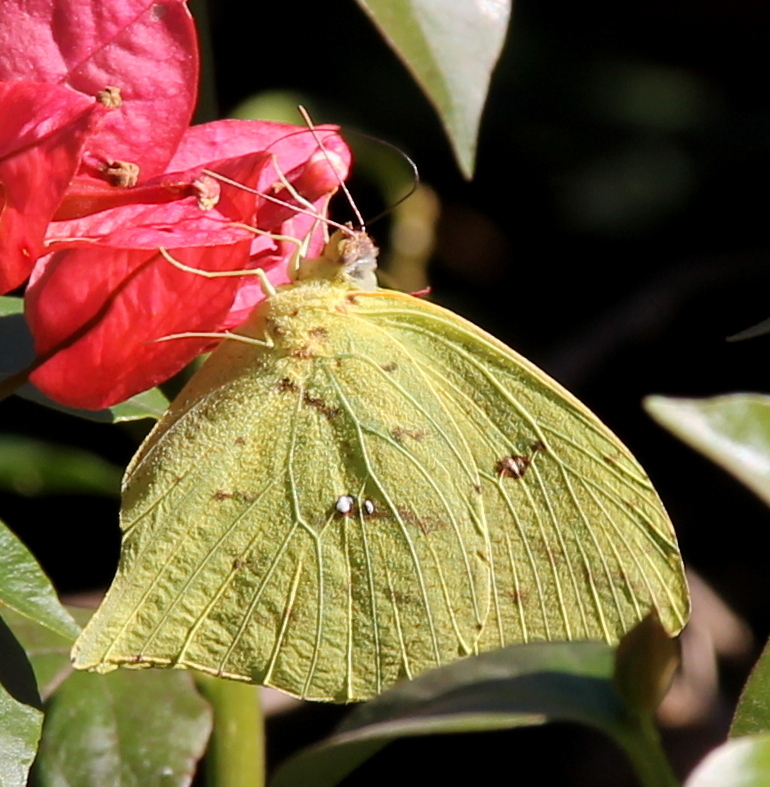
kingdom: Animalia
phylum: Arthropoda
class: Insecta
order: Lepidoptera
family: Pieridae
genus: Phoebis
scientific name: Phoebis neocypris
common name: Tailed sulphur
